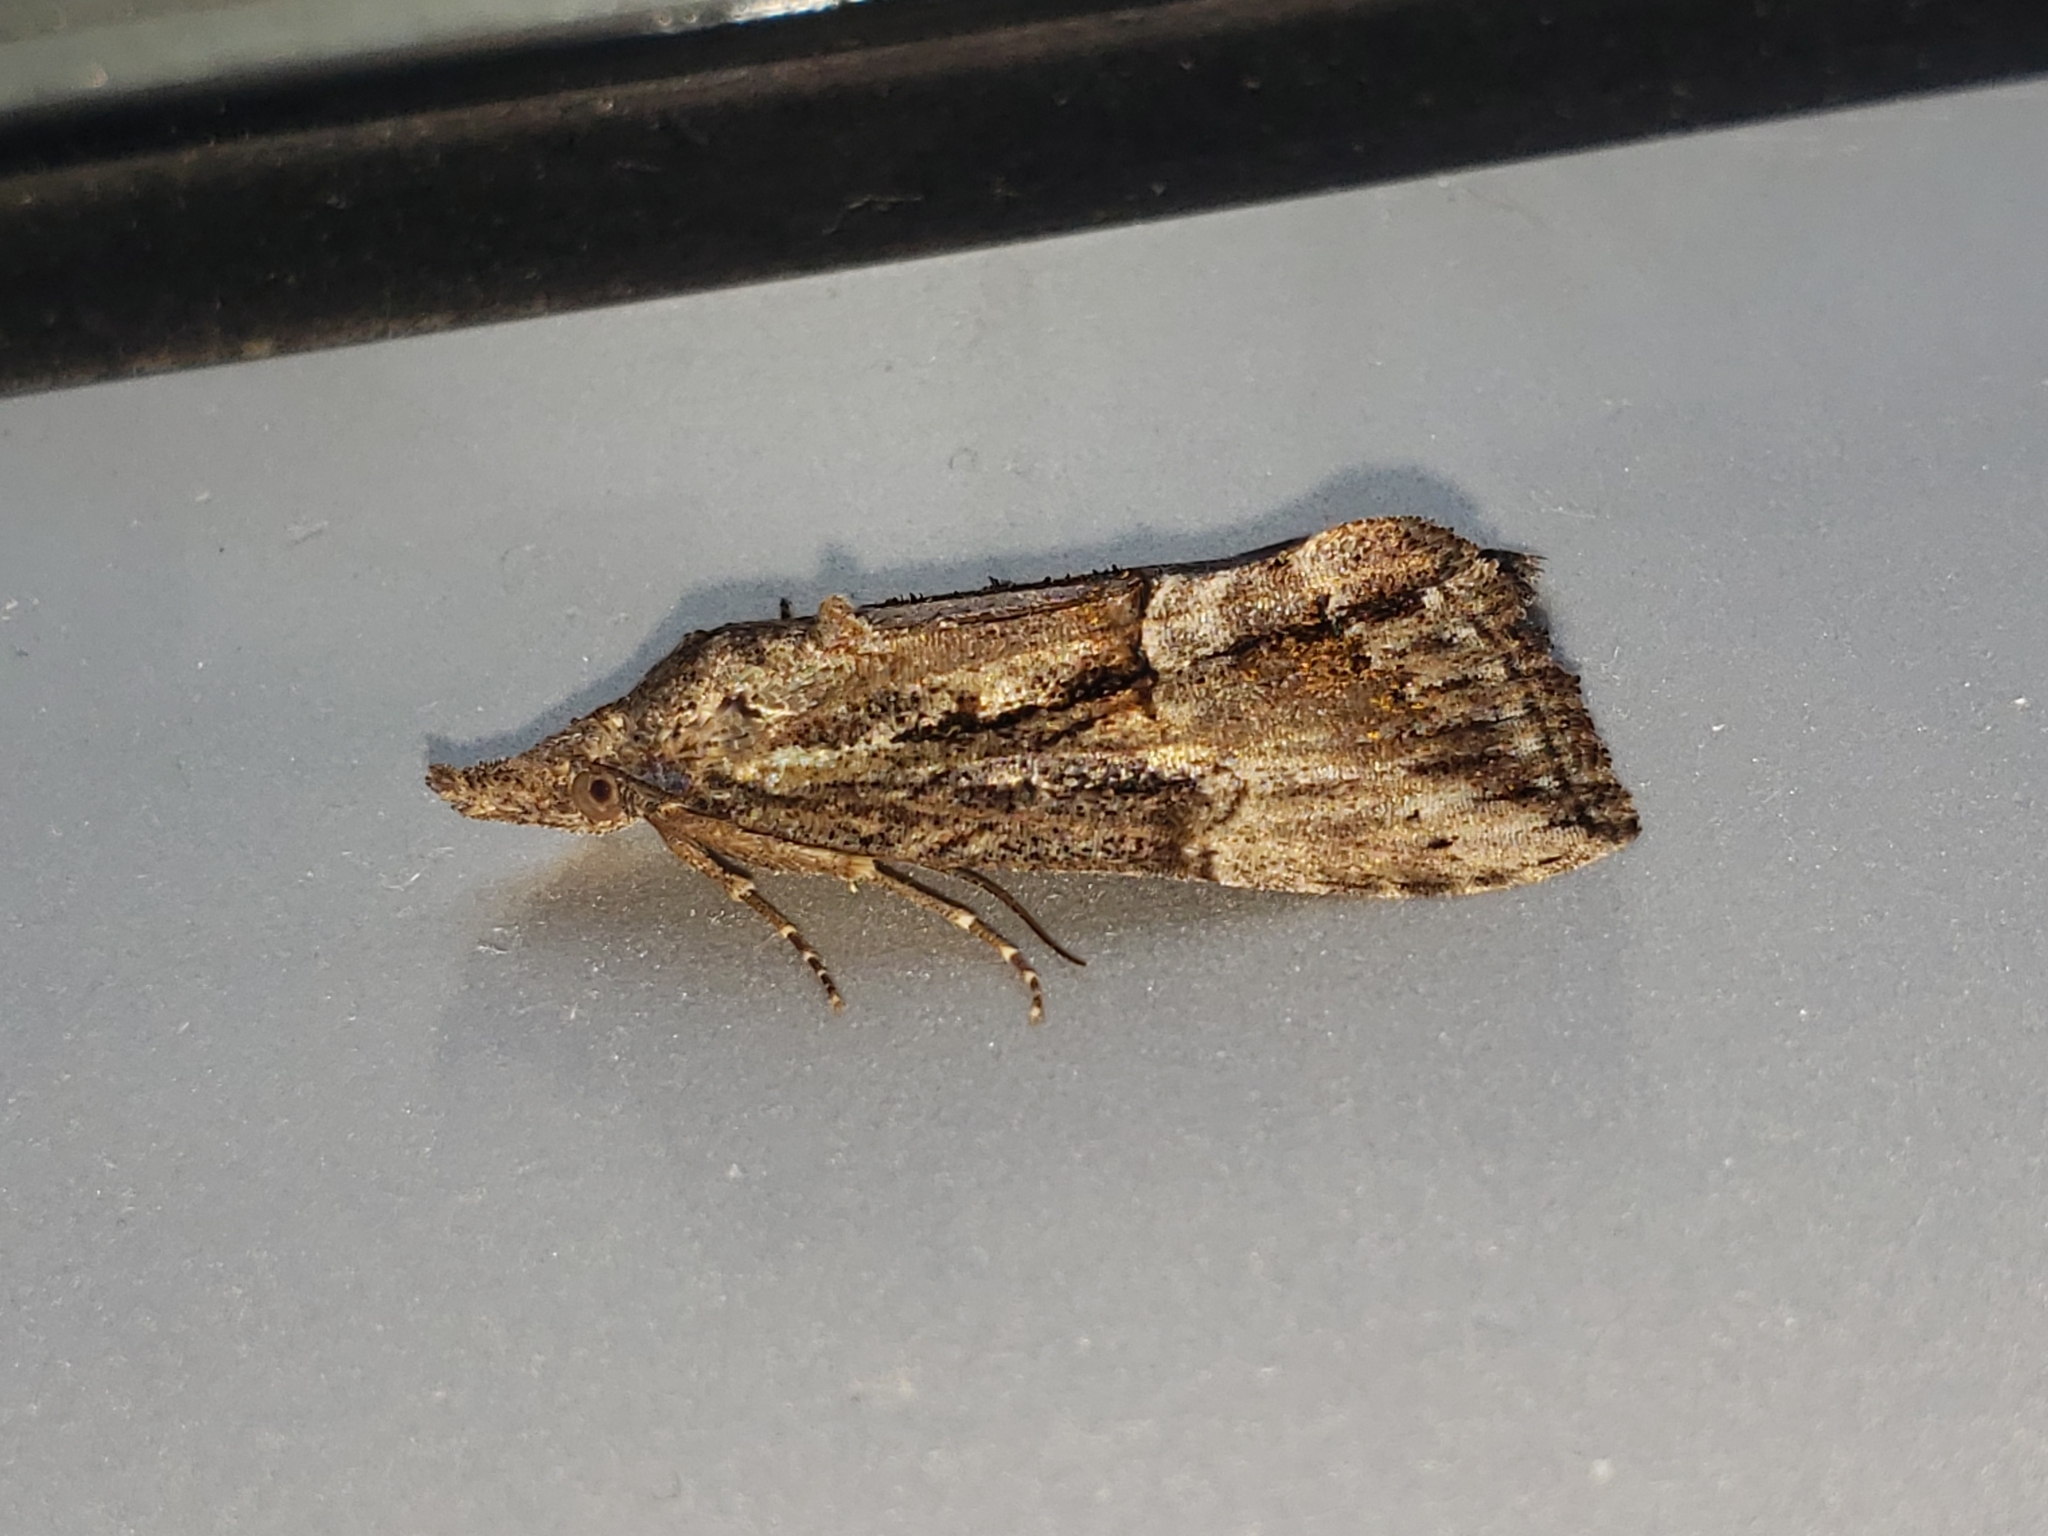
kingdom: Animalia
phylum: Arthropoda
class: Insecta
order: Lepidoptera
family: Erebidae
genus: Hypena
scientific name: Hypena scabra
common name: Green cloverworm
